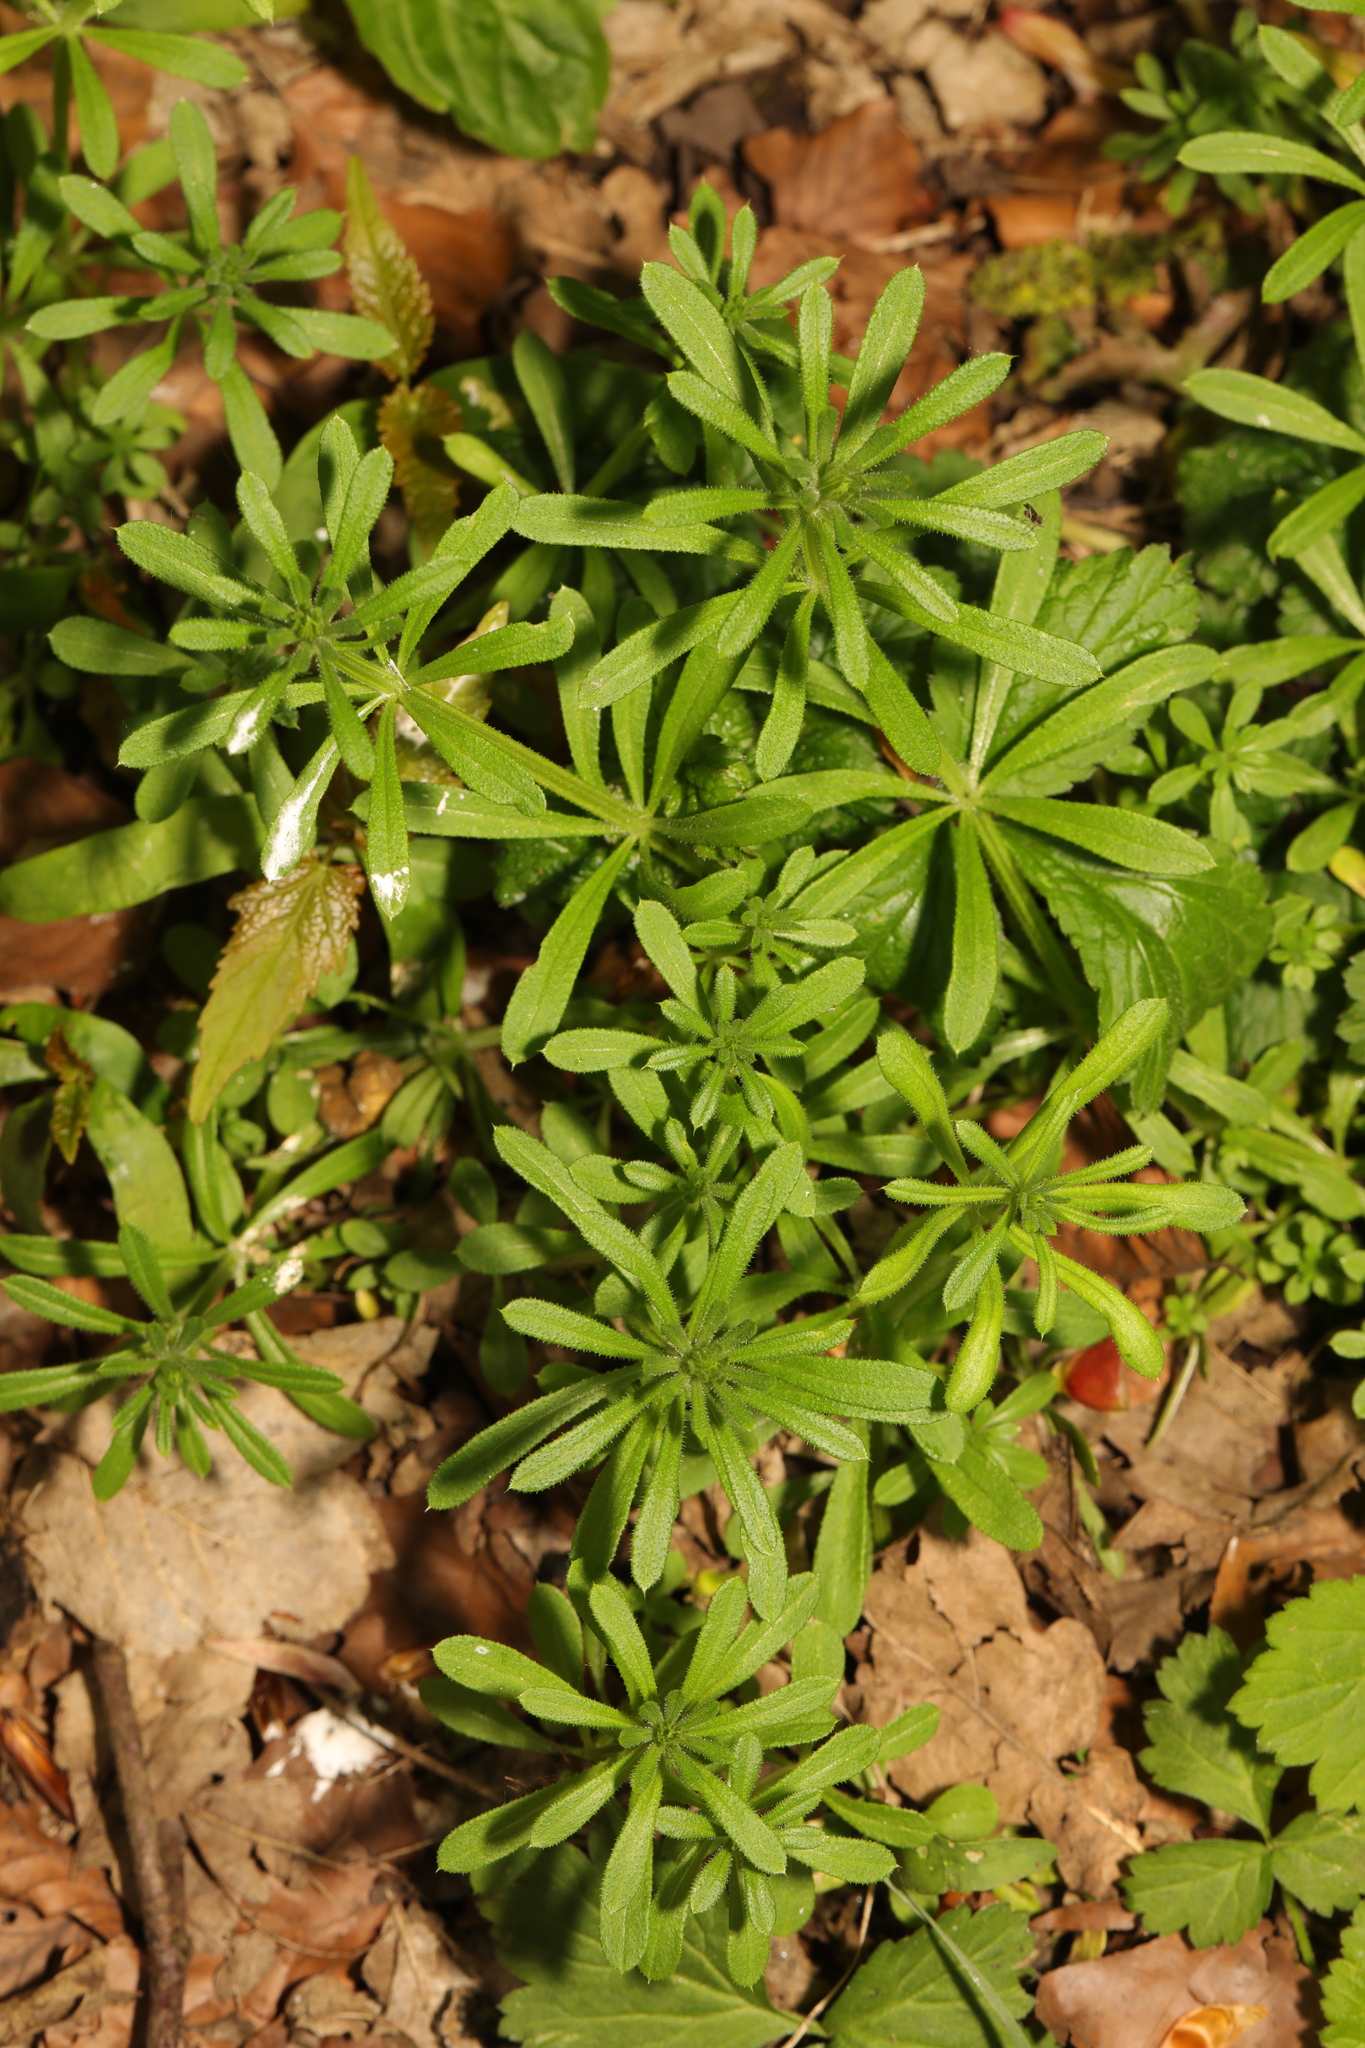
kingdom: Plantae
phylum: Tracheophyta
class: Magnoliopsida
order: Gentianales
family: Rubiaceae
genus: Galium
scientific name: Galium aparine
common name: Cleavers
